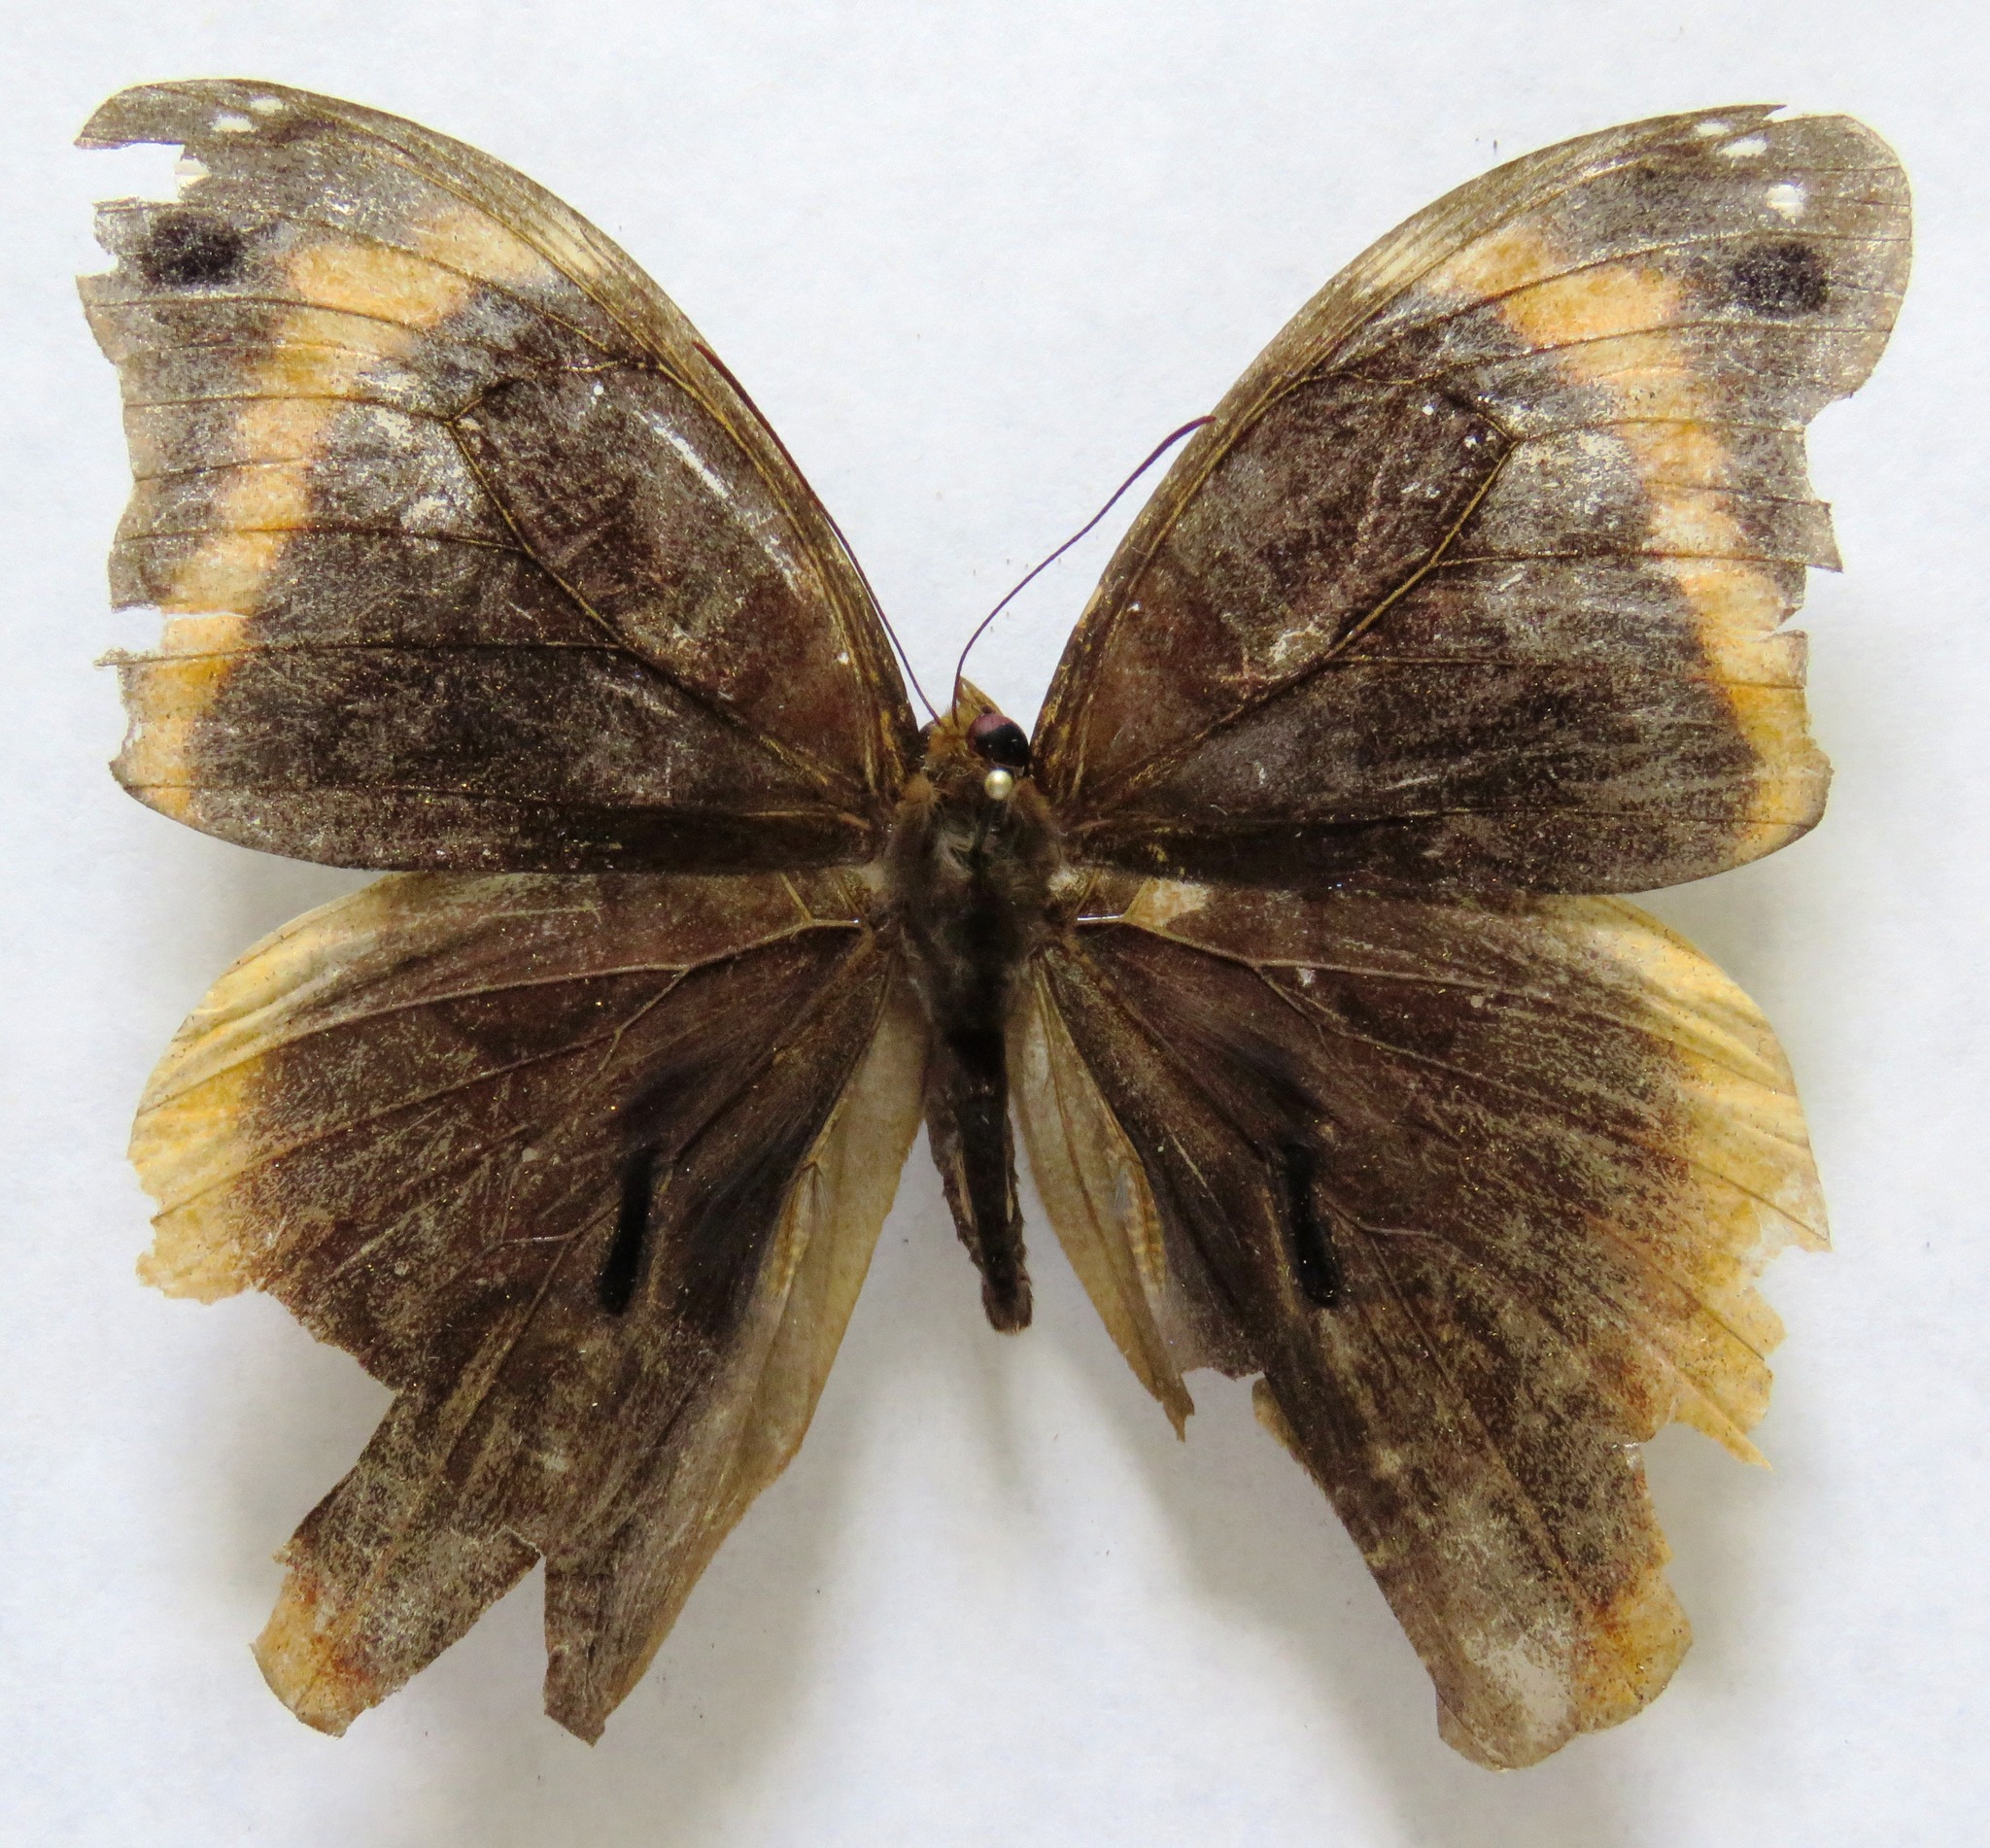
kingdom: Animalia
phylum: Arthropoda
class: Insecta
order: Lepidoptera
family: Nymphalidae
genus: Catoblepia
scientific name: Catoblepia orgetorix
